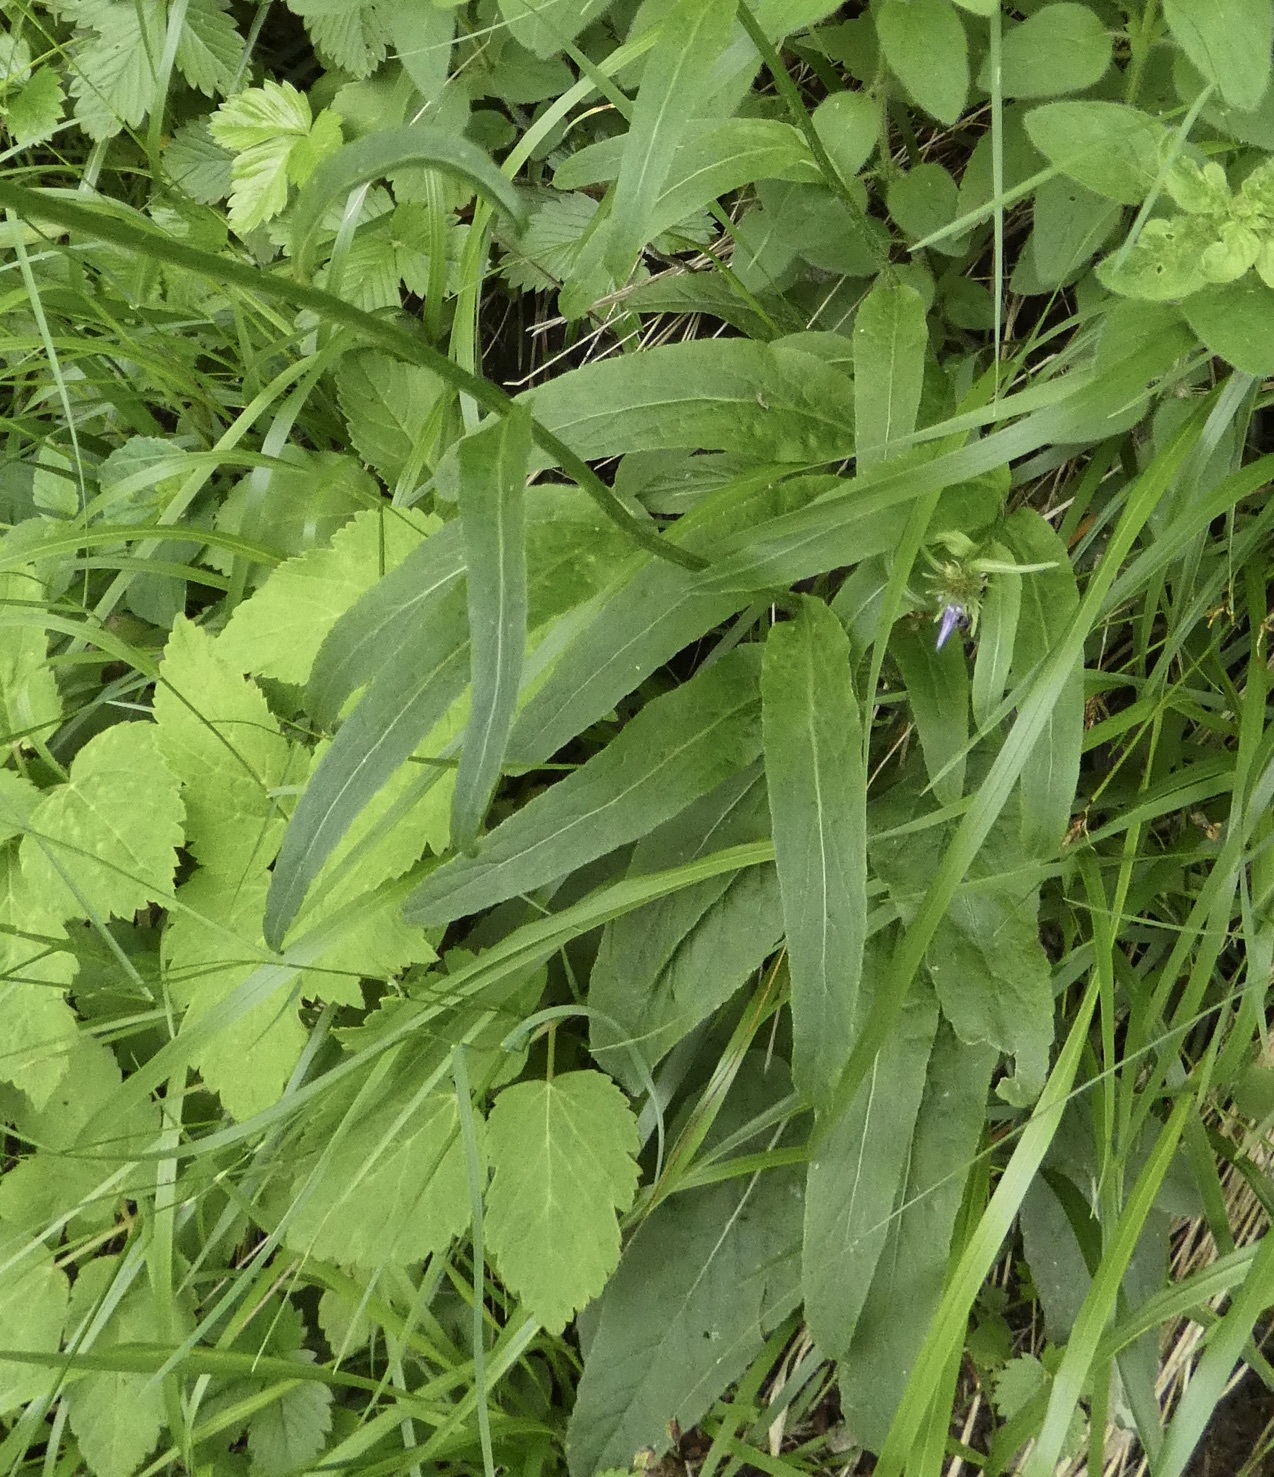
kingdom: Plantae
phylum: Tracheophyta
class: Magnoliopsida
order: Asterales
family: Campanulaceae
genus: Phyteuma
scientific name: Phyteuma betonicifolium
